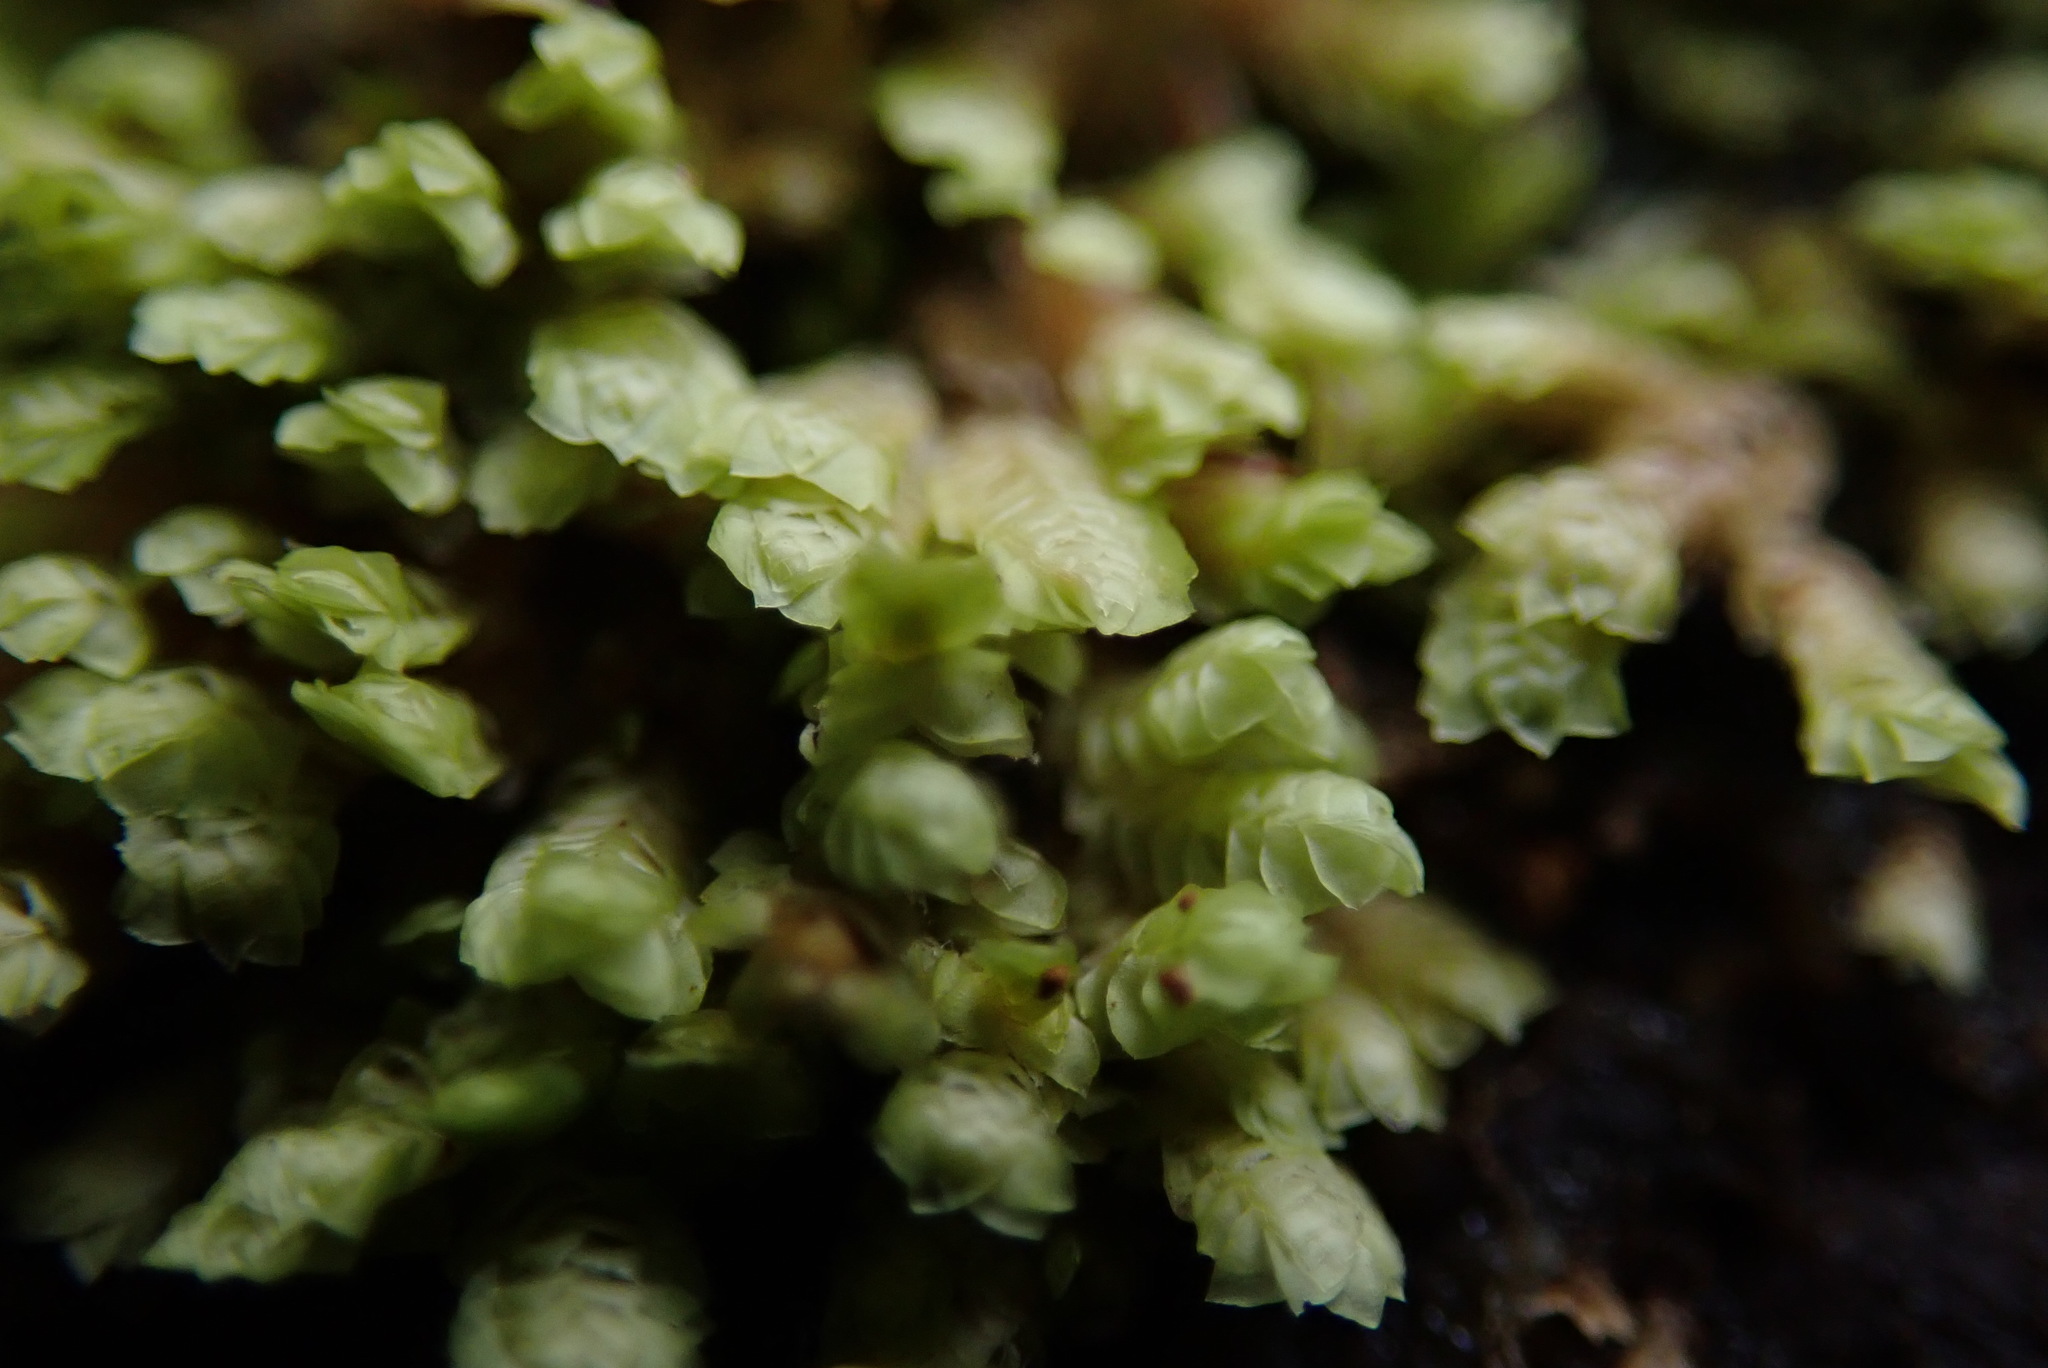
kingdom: Plantae
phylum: Marchantiophyta
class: Jungermanniopsida
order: Jungermanniales
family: Scapaniaceae
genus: Scapania
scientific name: Scapania umbrosa
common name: Shady earwort
